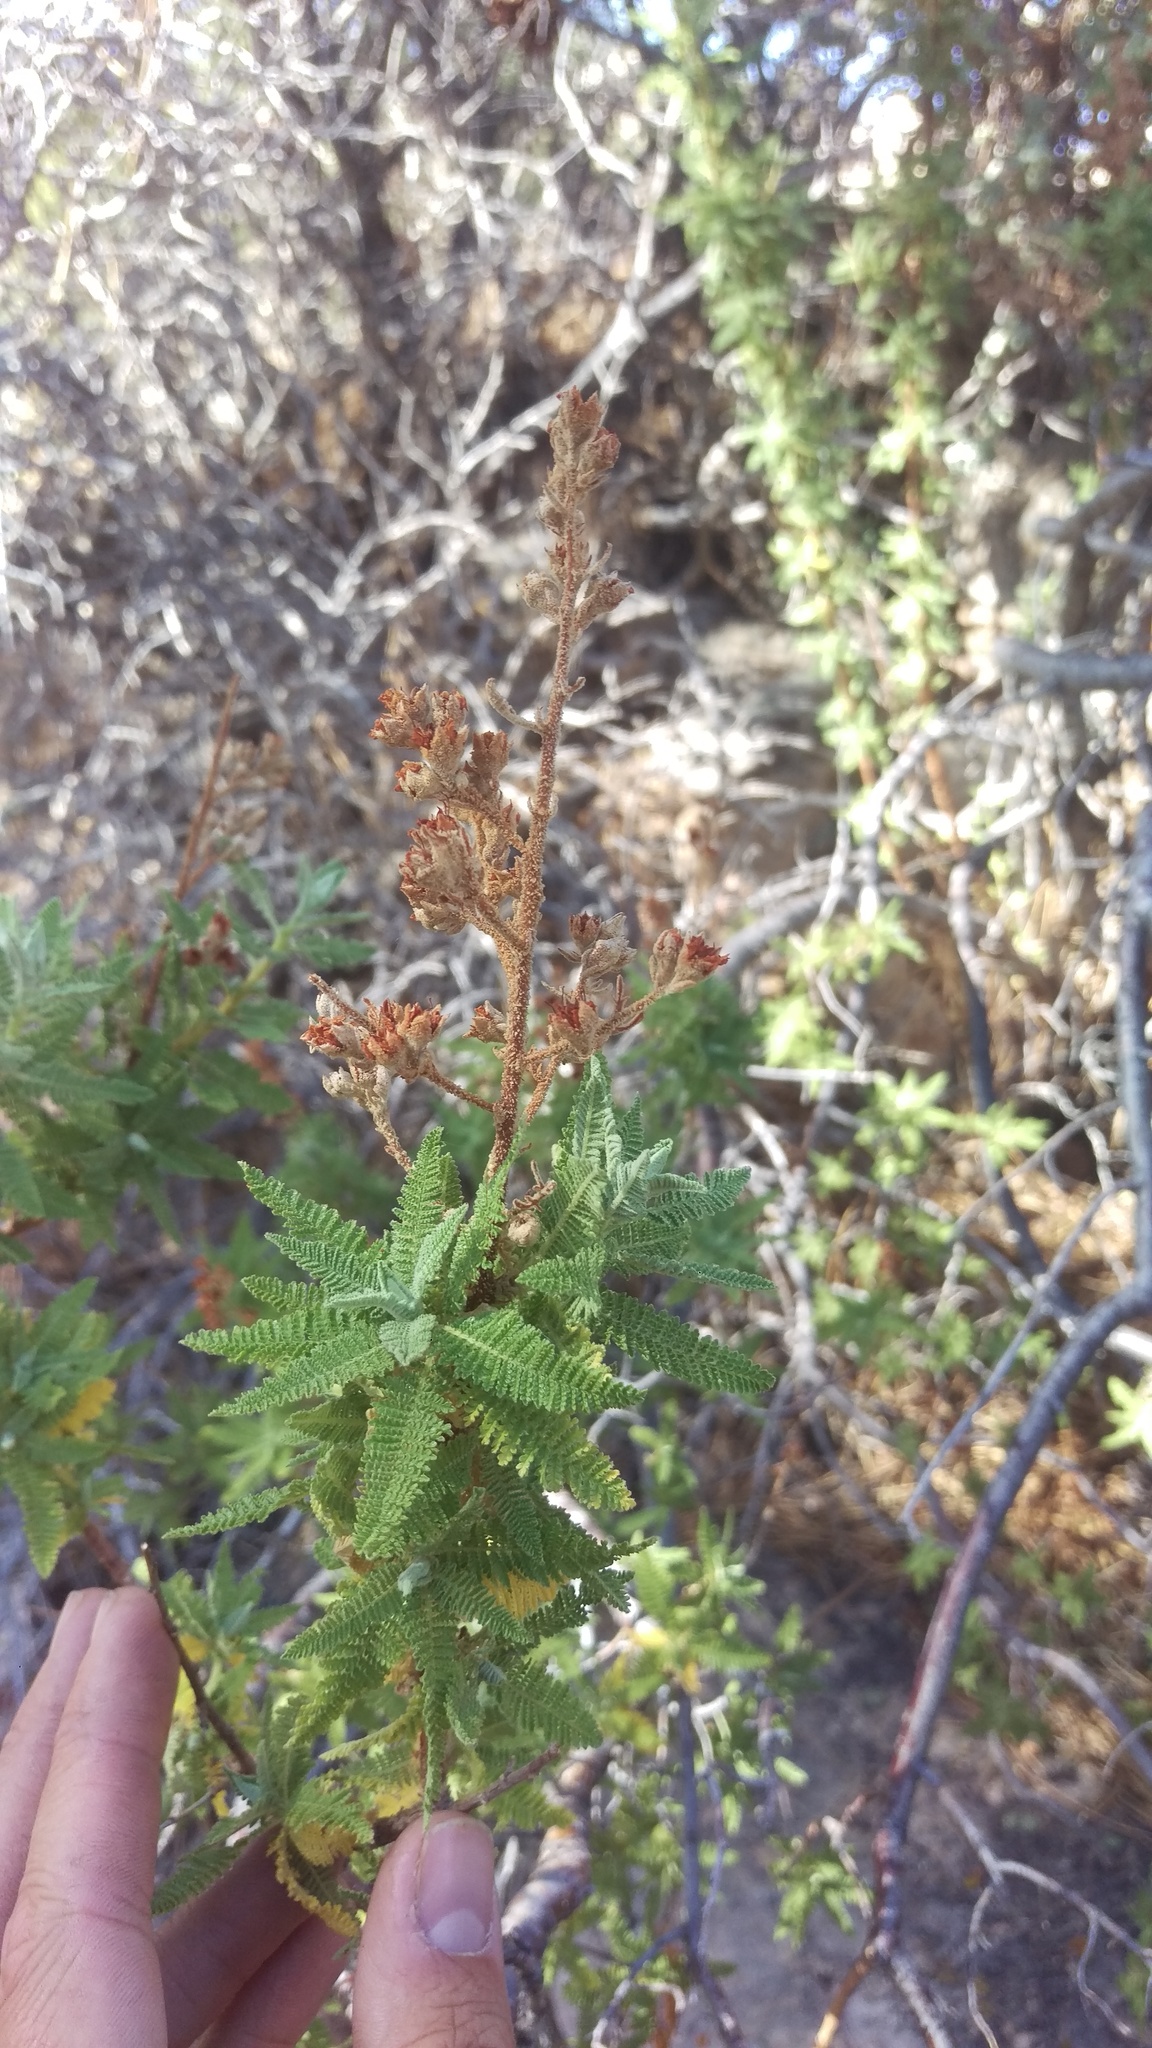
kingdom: Plantae
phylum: Tracheophyta
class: Magnoliopsida
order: Rosales
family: Rosaceae
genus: Chamaebatiaria
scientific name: Chamaebatiaria millefolium
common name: Fernbush
